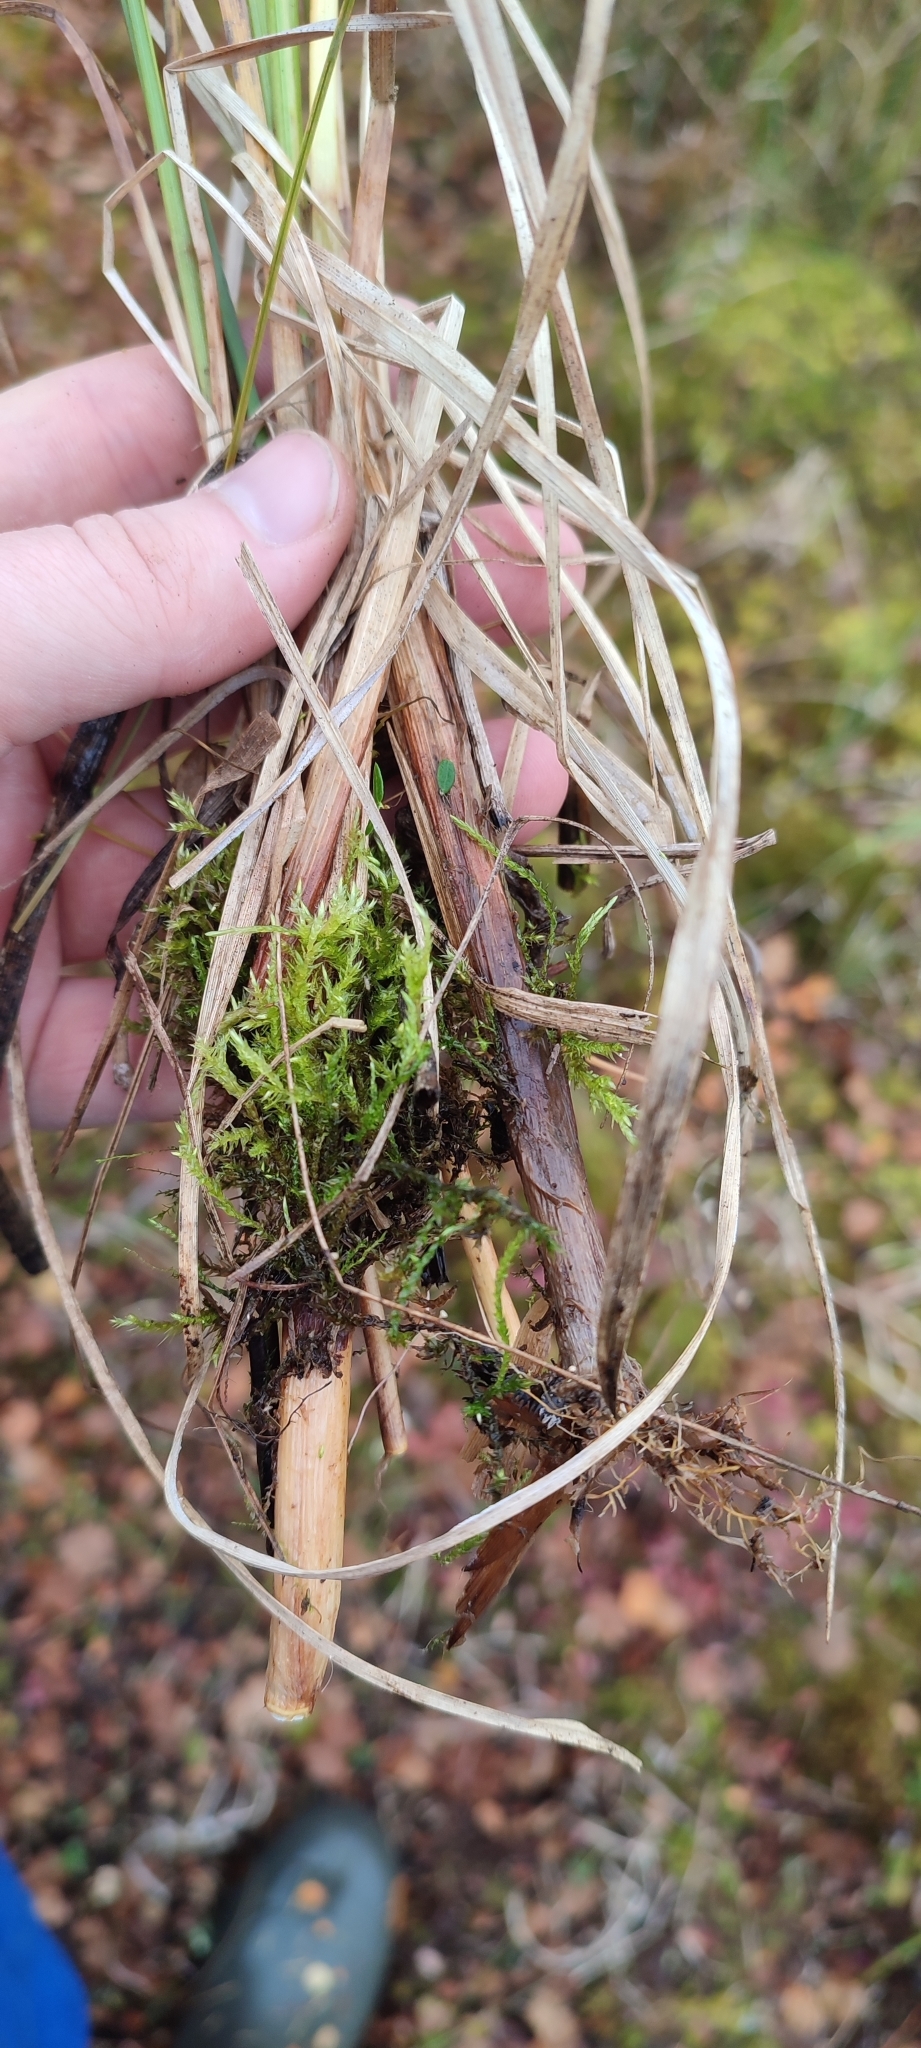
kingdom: Plantae
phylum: Tracheophyta
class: Liliopsida
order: Poales
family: Cyperaceae
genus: Carex
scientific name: Carex rostrata
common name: Bottle sedge
